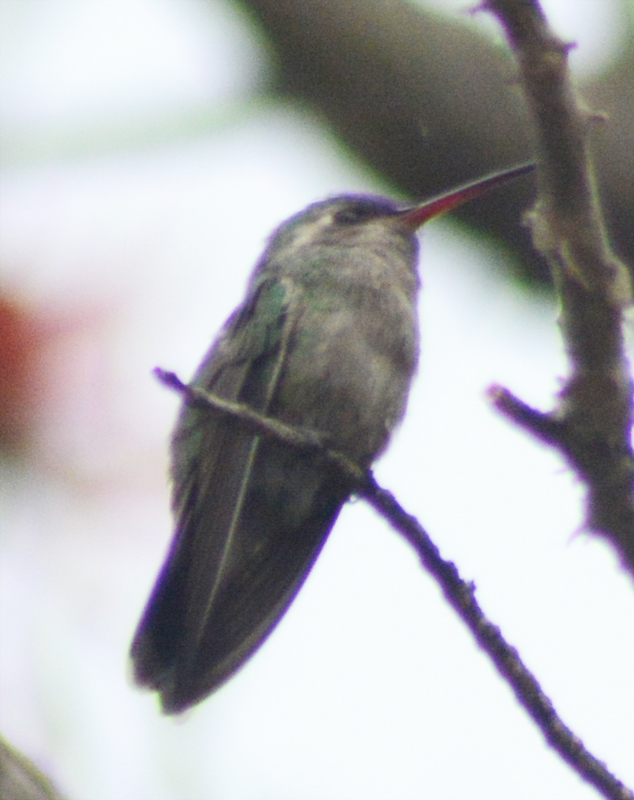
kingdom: Animalia
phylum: Chordata
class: Aves
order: Apodiformes
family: Trochilidae
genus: Cynanthus
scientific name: Cynanthus latirostris
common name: Broad-billed hummingbird
